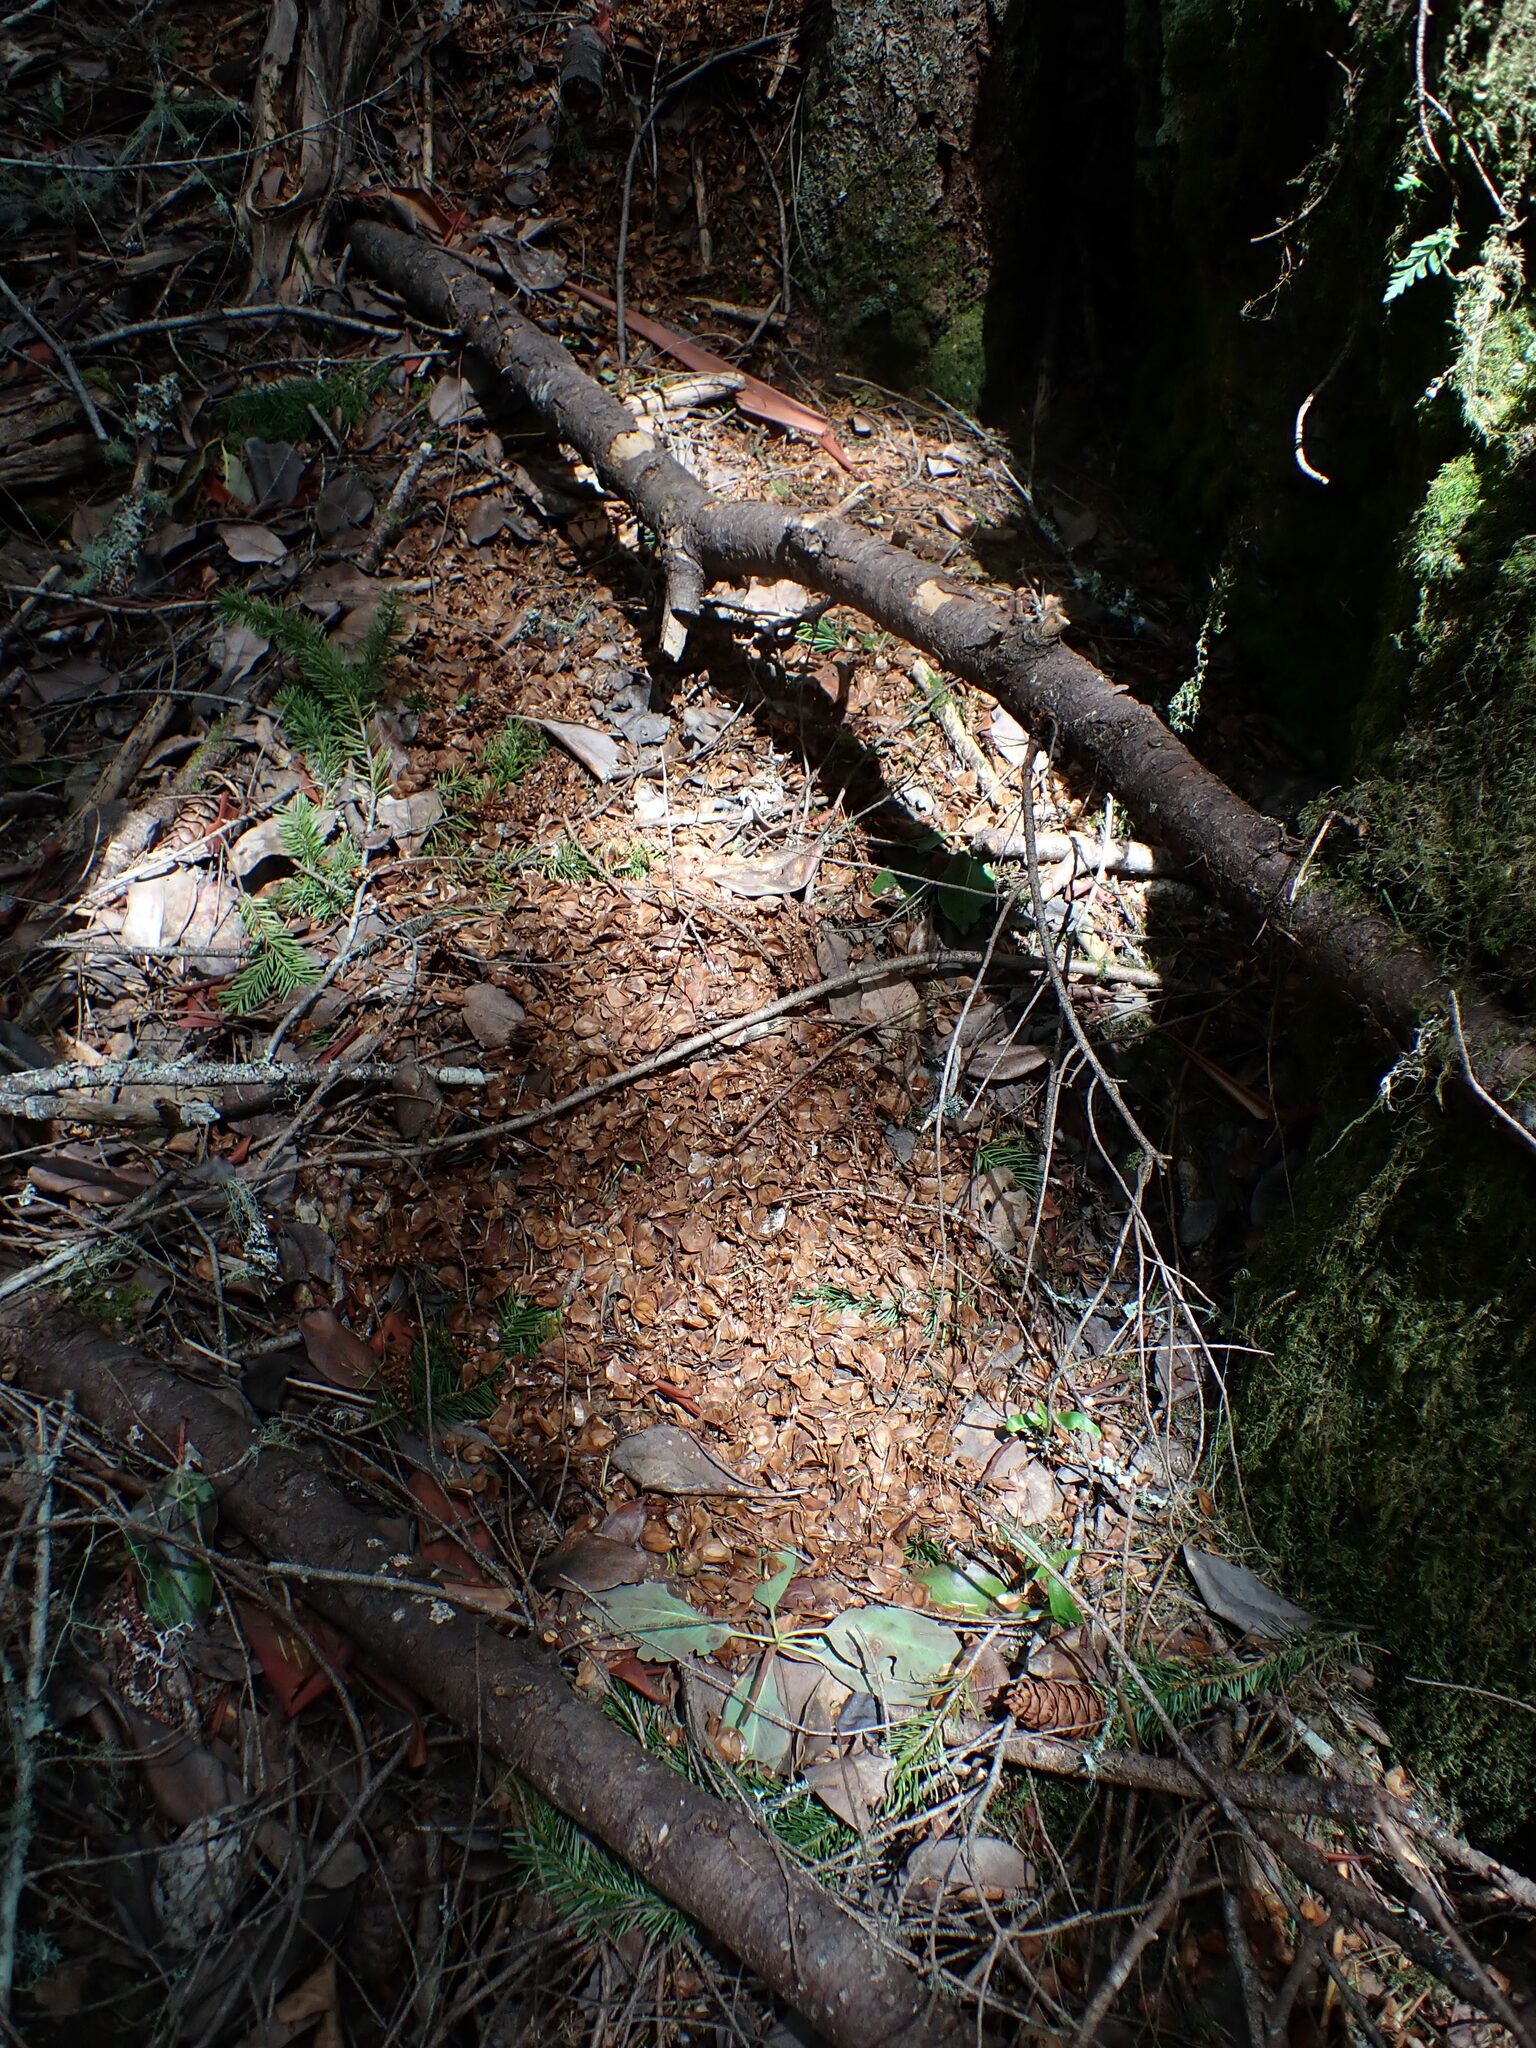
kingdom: Plantae
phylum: Tracheophyta
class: Magnoliopsida
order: Lamiales
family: Orobanchaceae
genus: Kopsiopsis
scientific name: Kopsiopsis hookeri
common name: Hooker's groundcone
